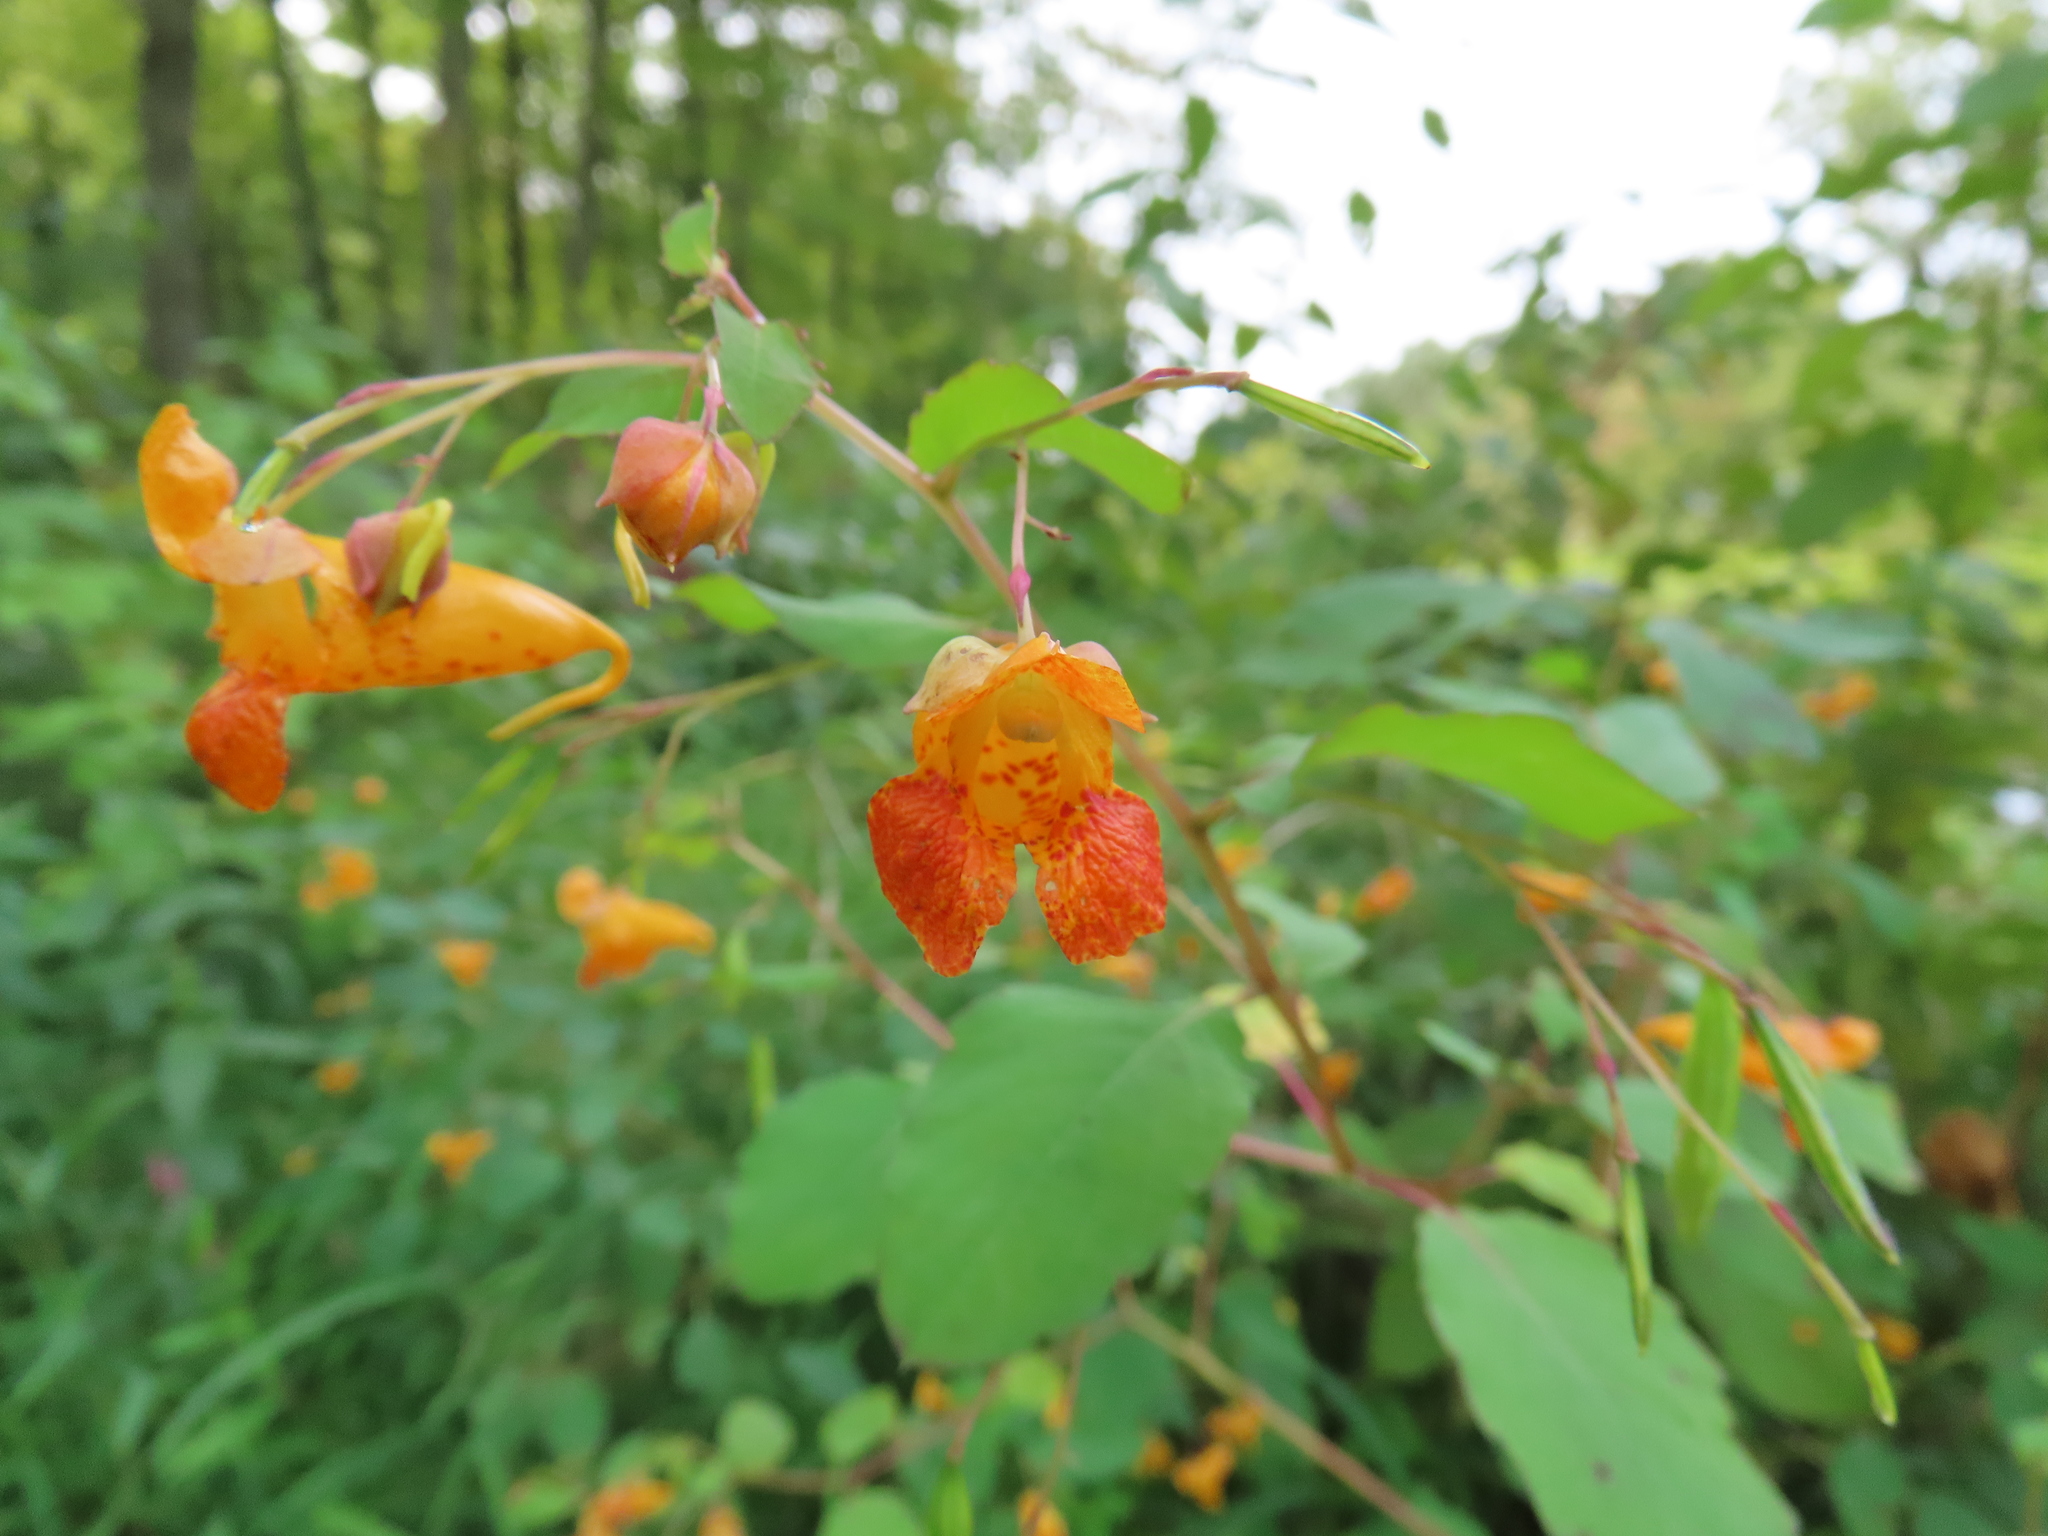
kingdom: Plantae
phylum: Tracheophyta
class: Magnoliopsida
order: Ericales
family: Balsaminaceae
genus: Impatiens
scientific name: Impatiens capensis
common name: Orange balsam
